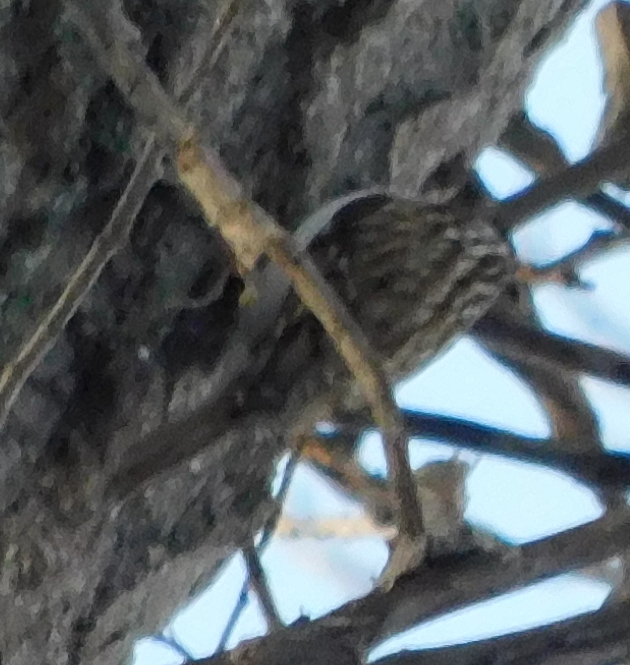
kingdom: Animalia
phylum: Chordata
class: Aves
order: Passeriformes
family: Certhiidae
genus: Certhia
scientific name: Certhia familiaris
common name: Eurasian treecreeper
